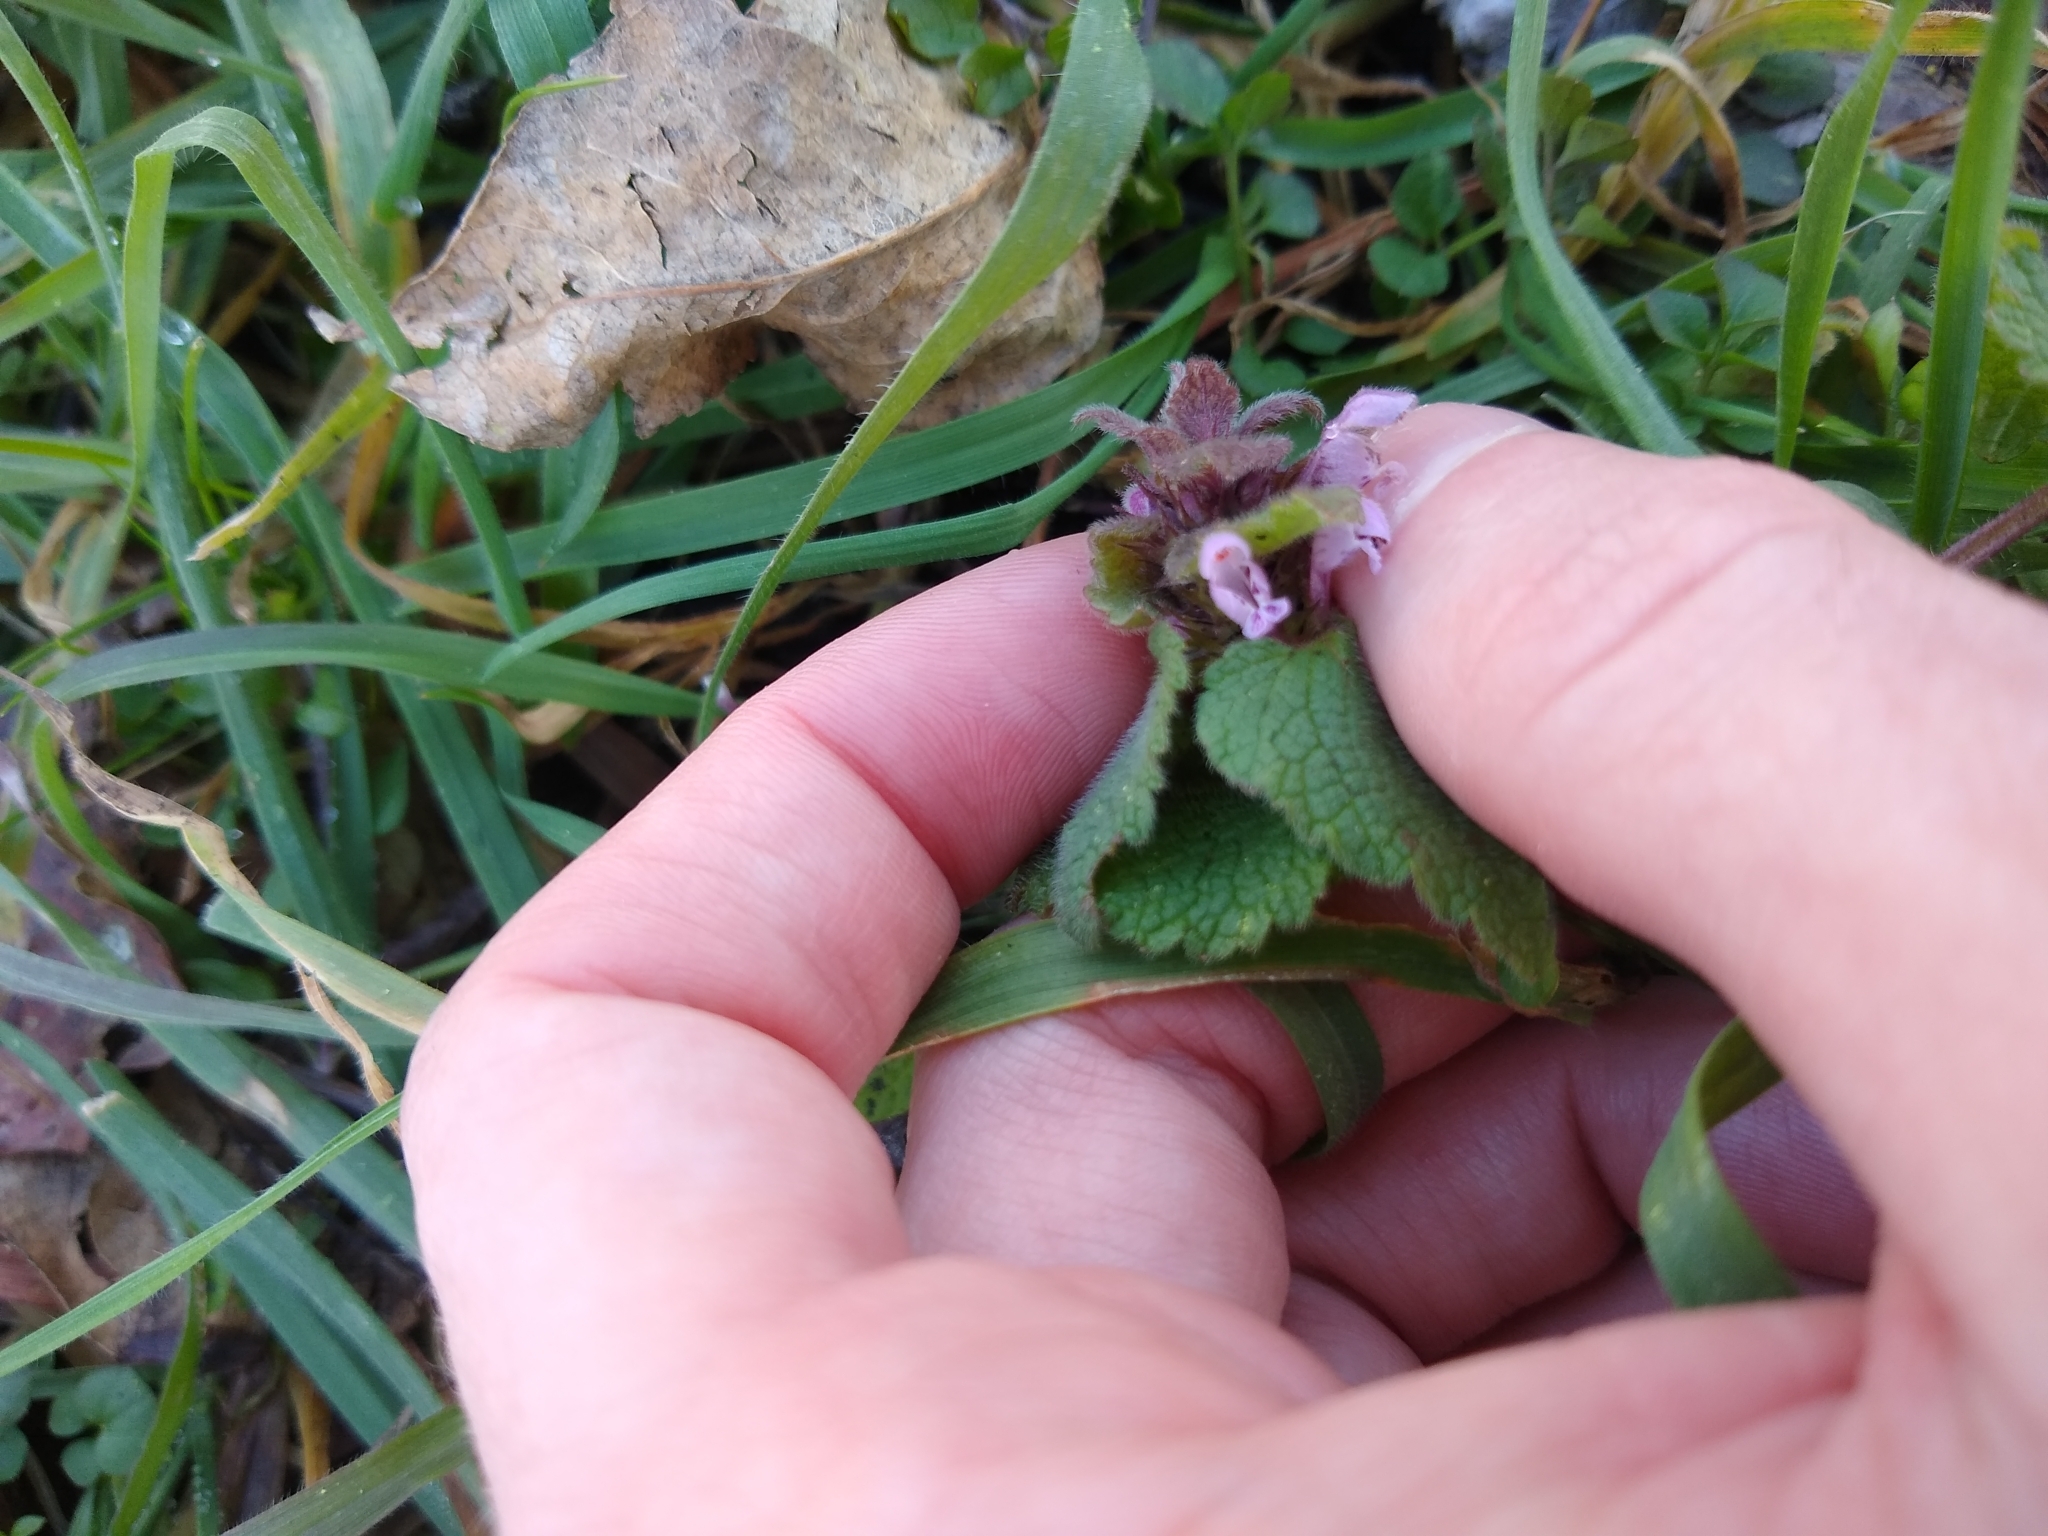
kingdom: Plantae
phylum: Tracheophyta
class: Magnoliopsida
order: Lamiales
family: Lamiaceae
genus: Lamium
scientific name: Lamium purpureum
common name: Red dead-nettle
